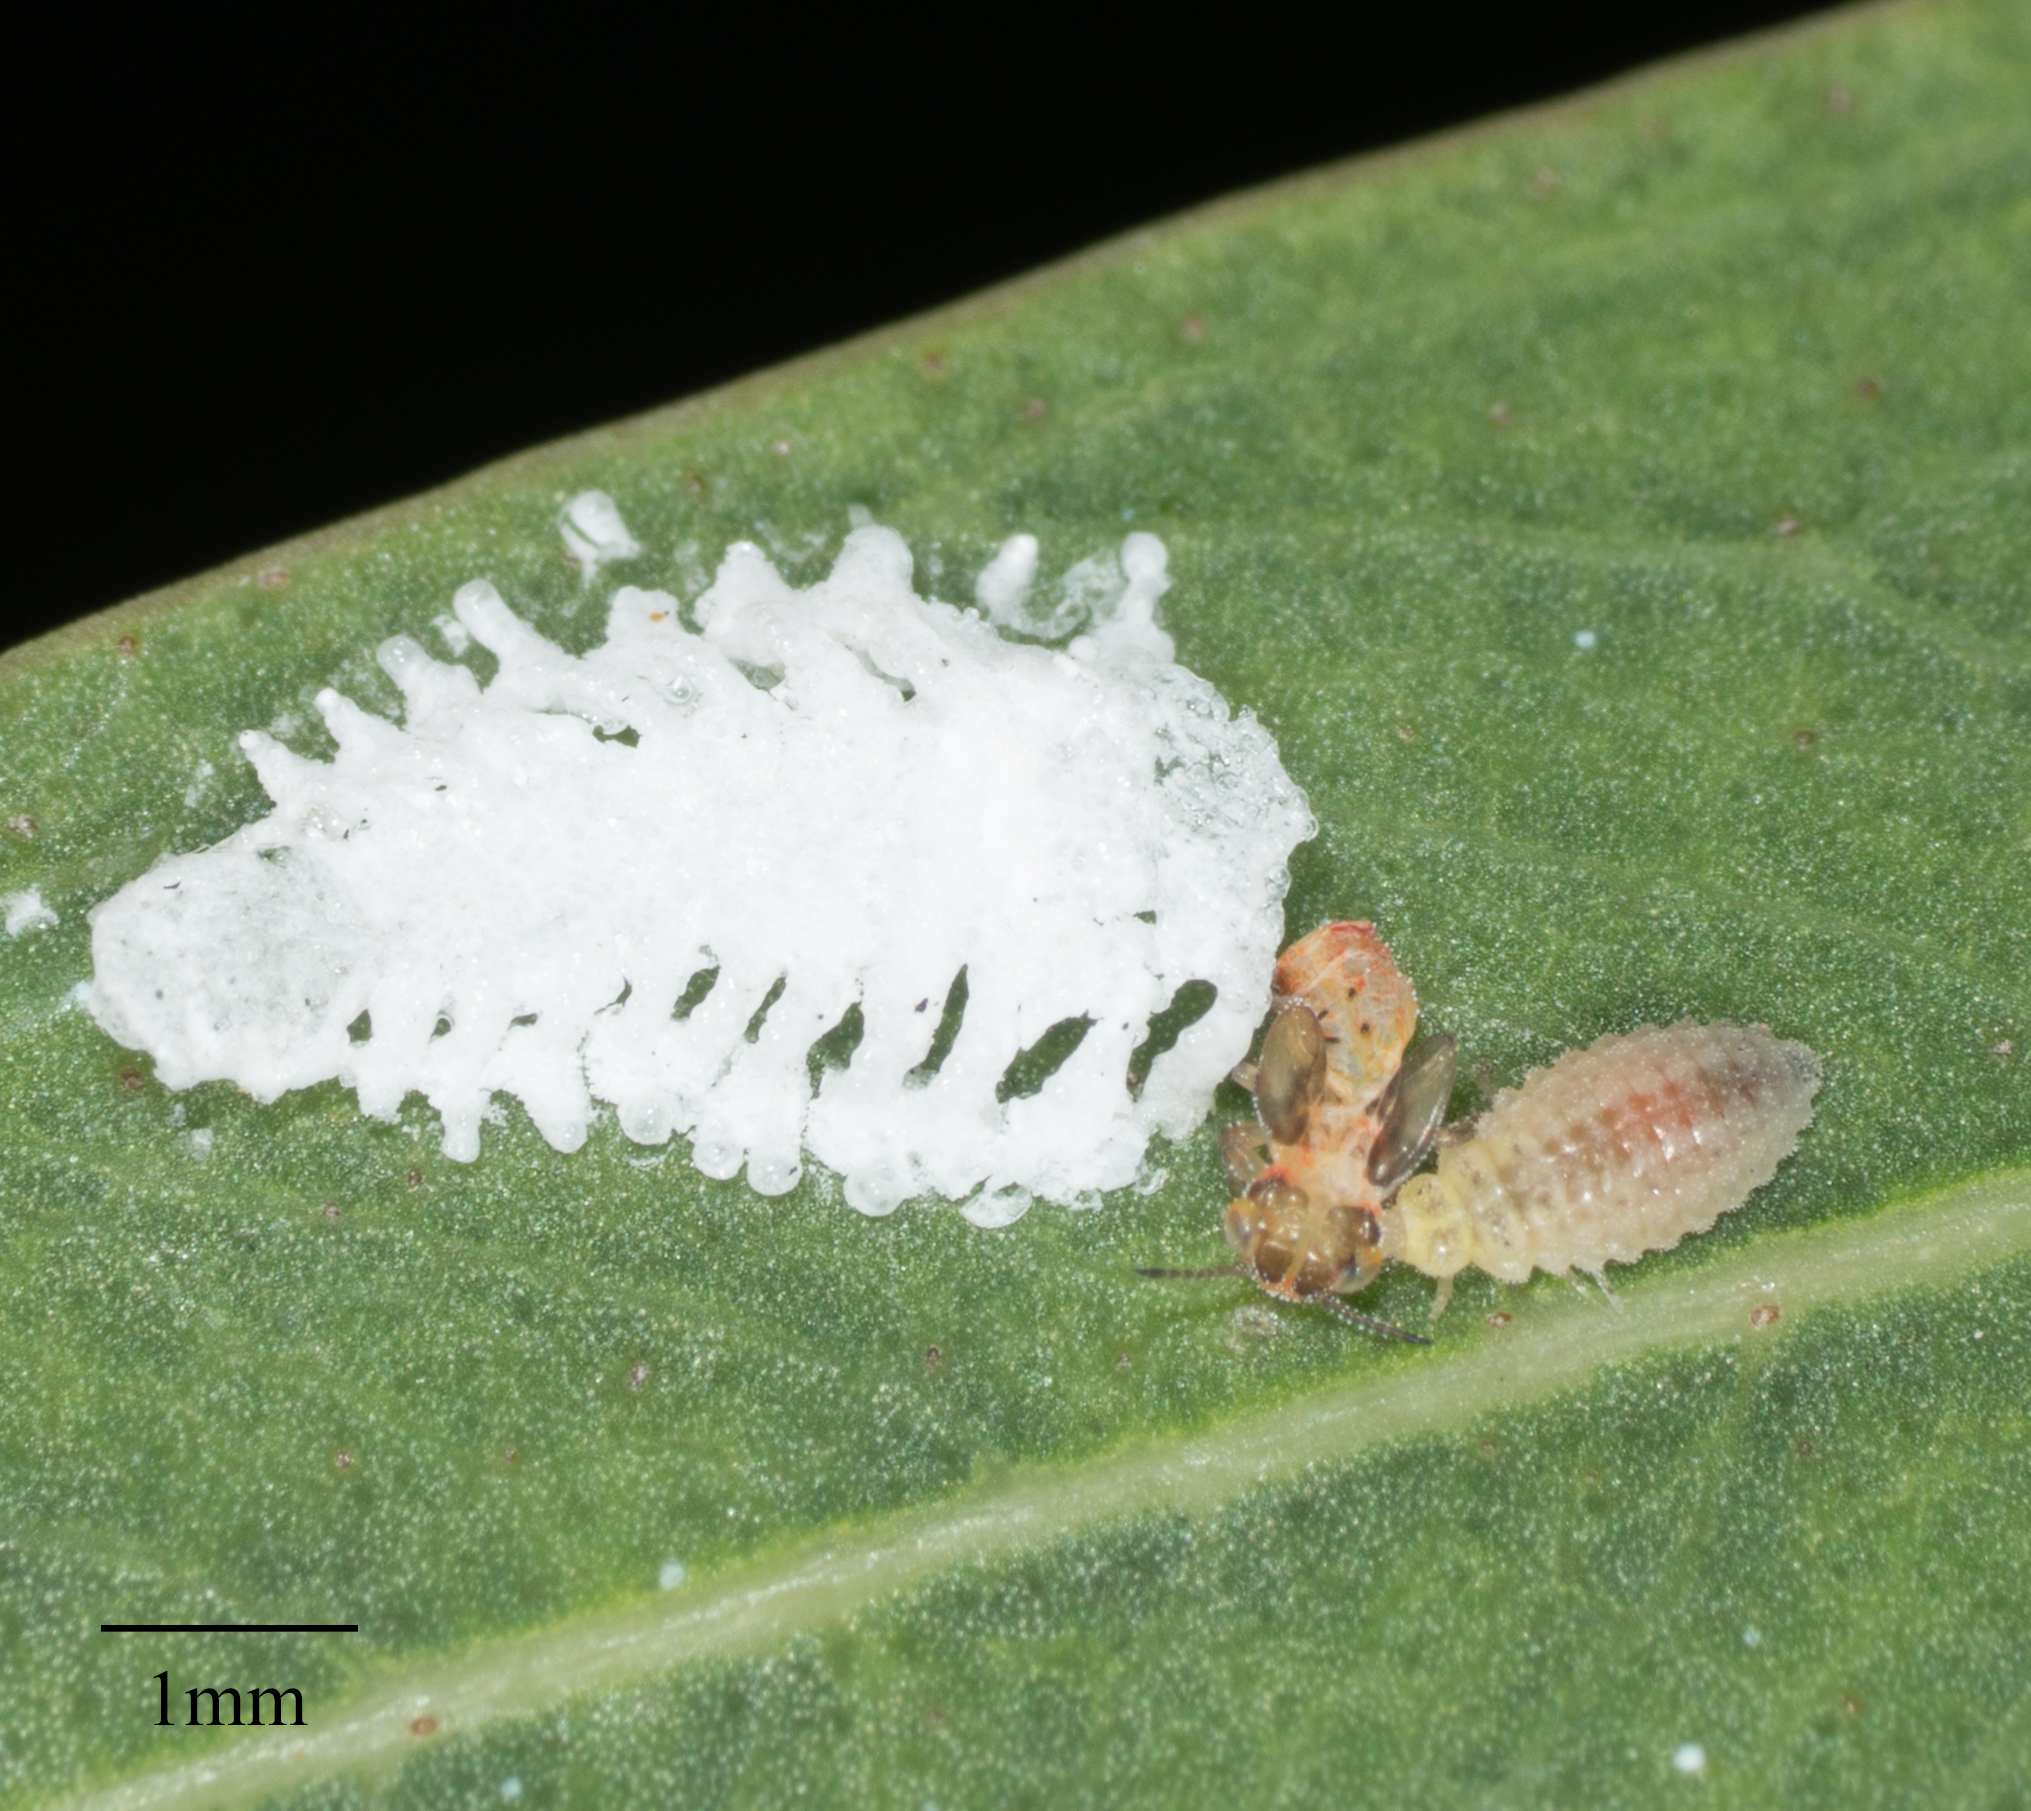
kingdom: Animalia
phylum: Arthropoda
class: Insecta
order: Hemiptera
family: Aphalaridae
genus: Eucalyptolyma
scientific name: Eucalyptolyma maideni
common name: Spotted gum lerp psyllid
